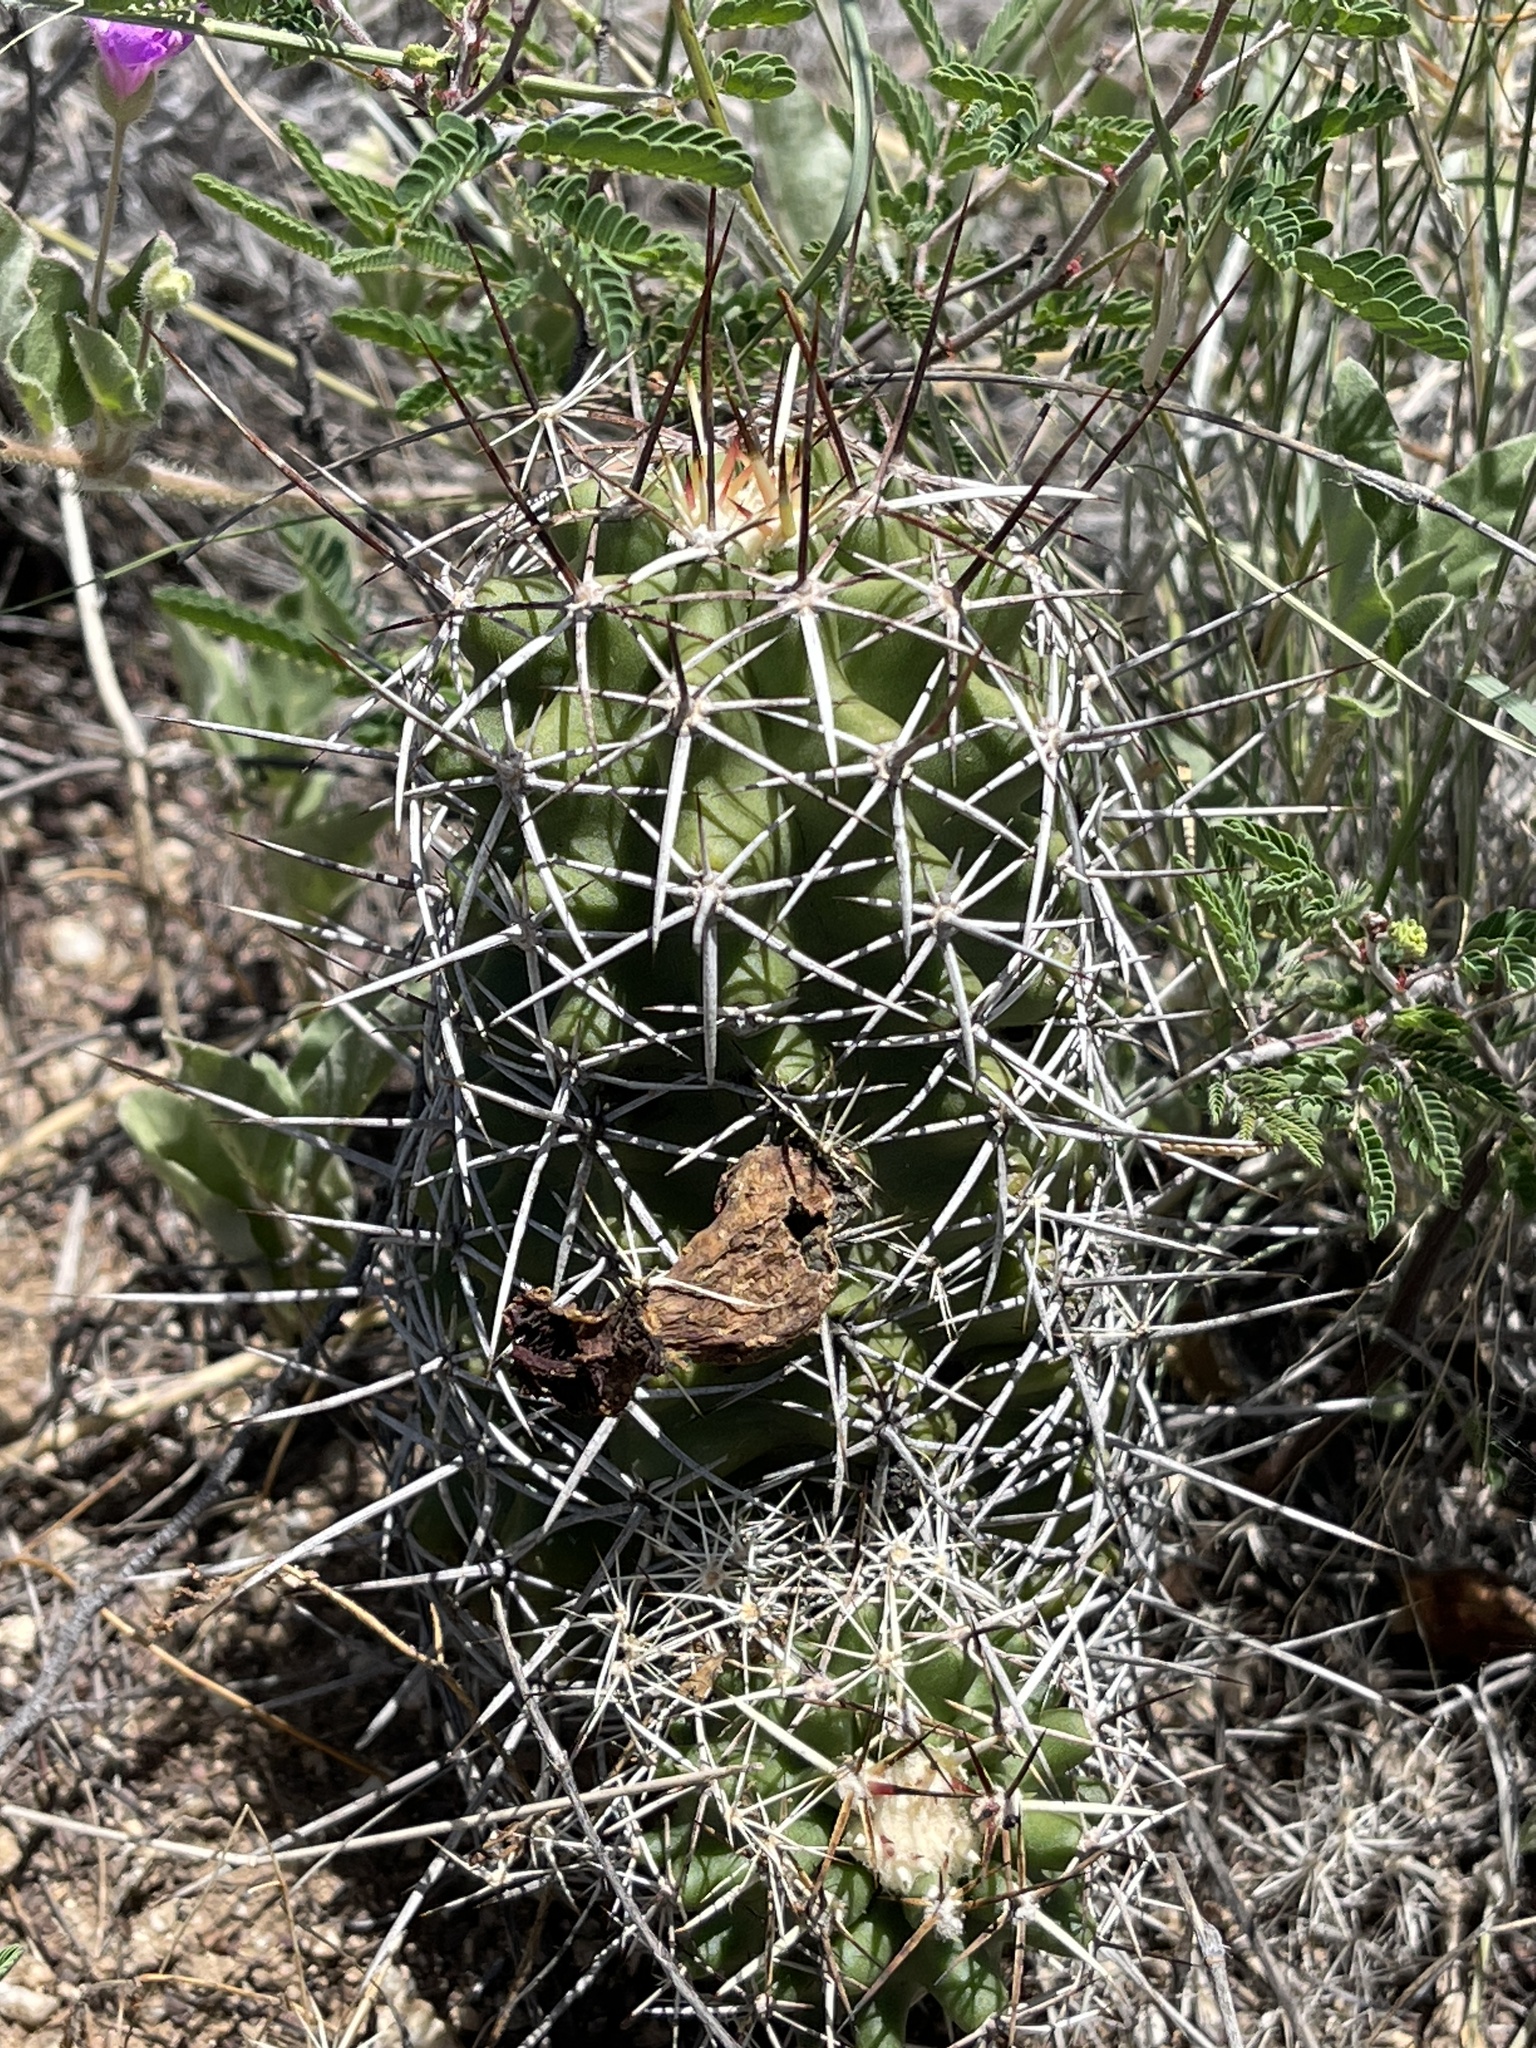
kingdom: Plantae
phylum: Tracheophyta
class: Magnoliopsida
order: Caryophyllales
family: Cactaceae
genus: Echinocereus
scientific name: Echinocereus fendleri
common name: Fendler's hedgehog cactus
